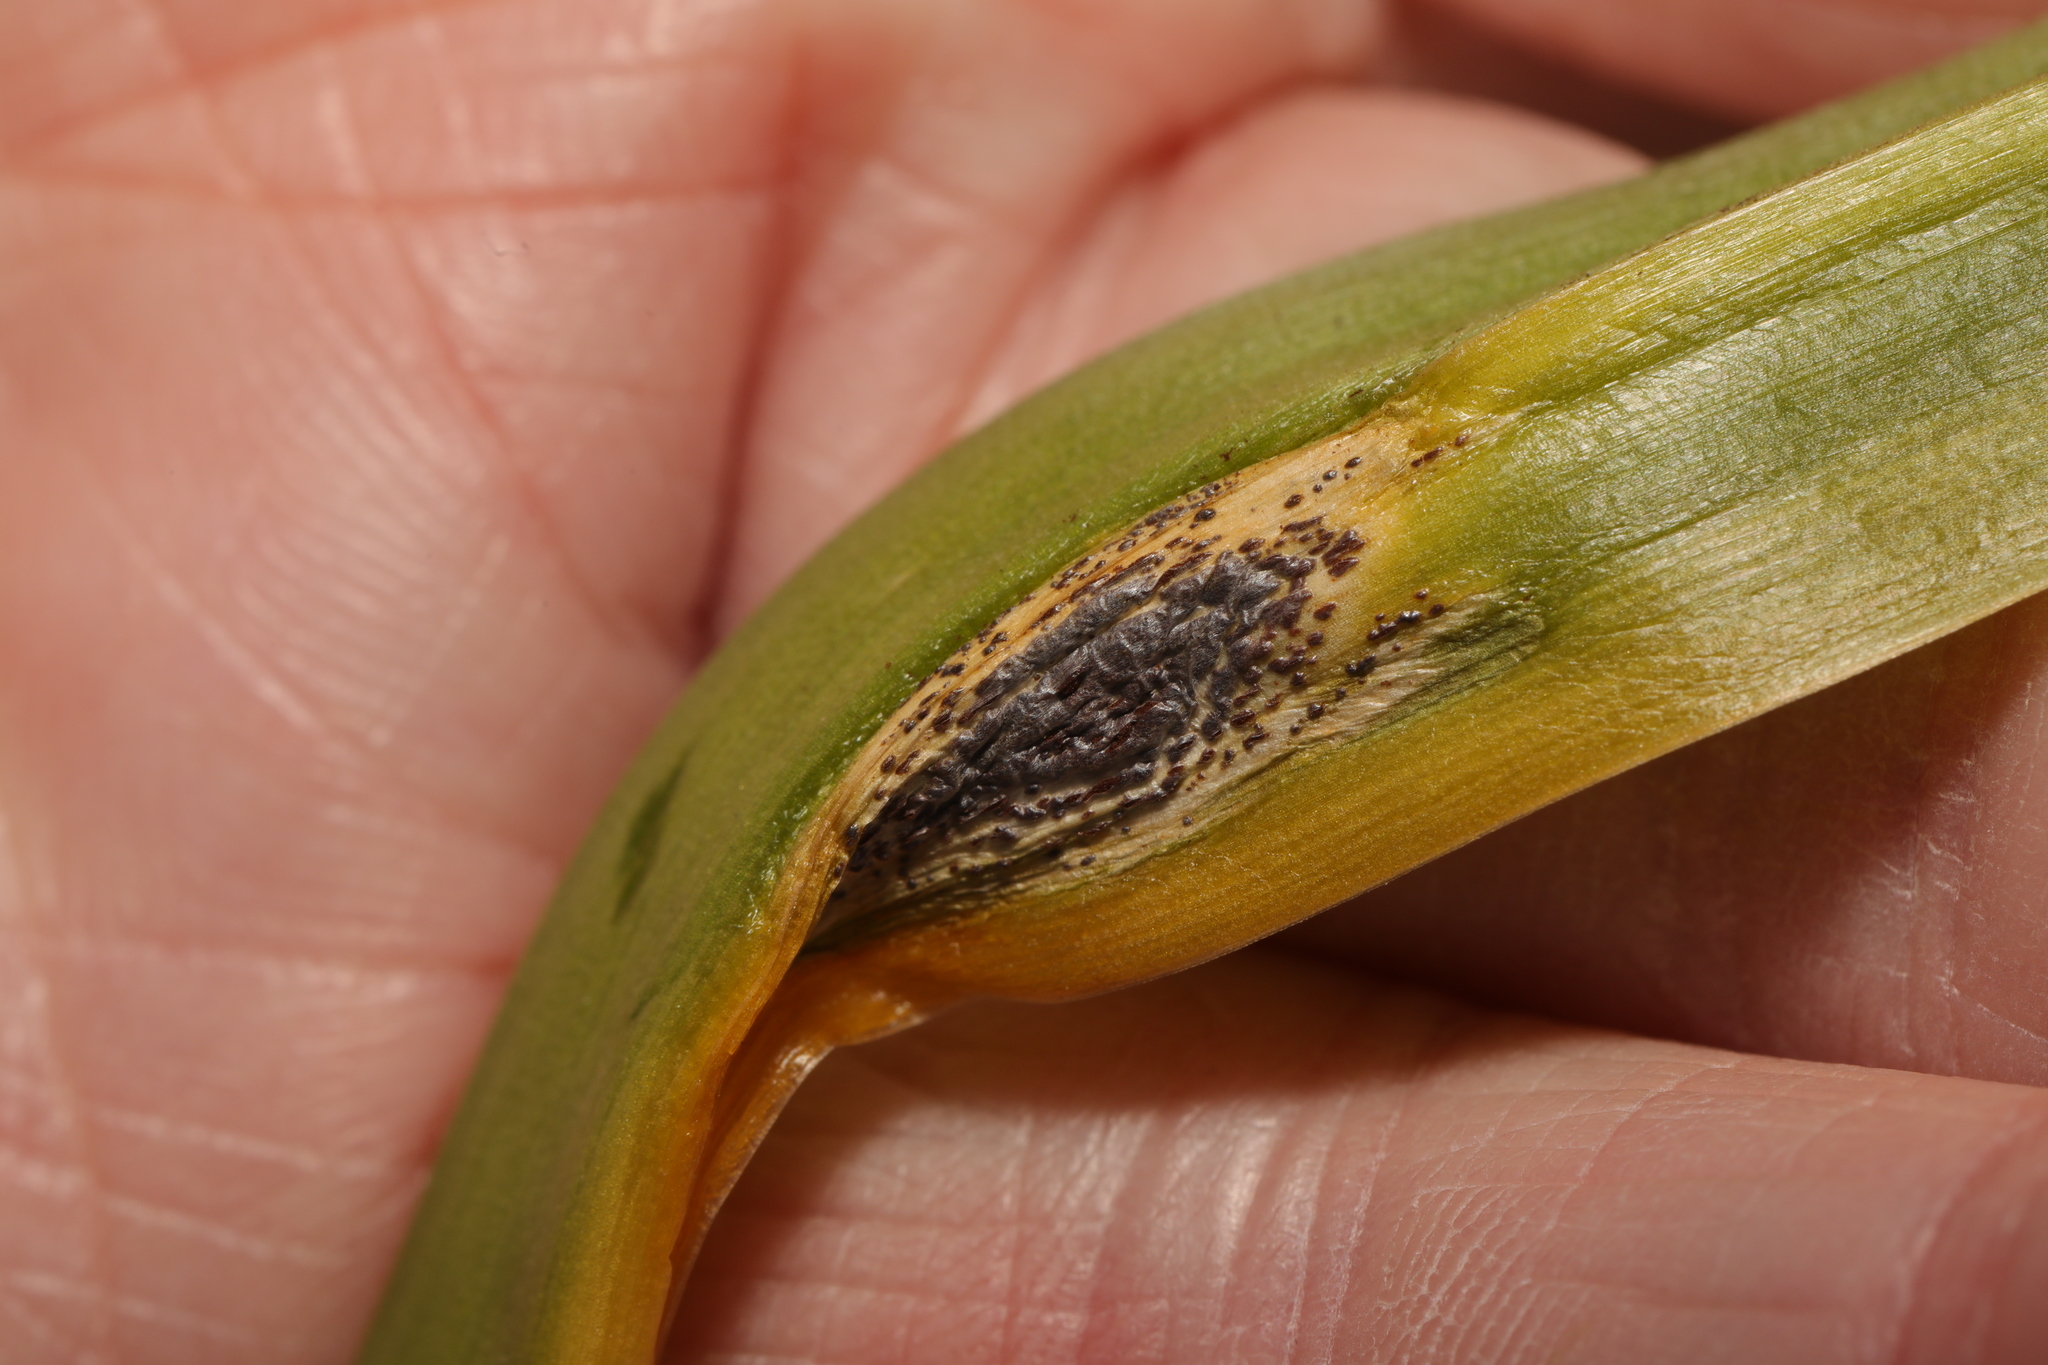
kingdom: Fungi
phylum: Basidiomycota
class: Pucciniomycetes
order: Pucciniales
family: Pucciniaceae
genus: Uromyces
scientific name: Uromyces hyacinthi
